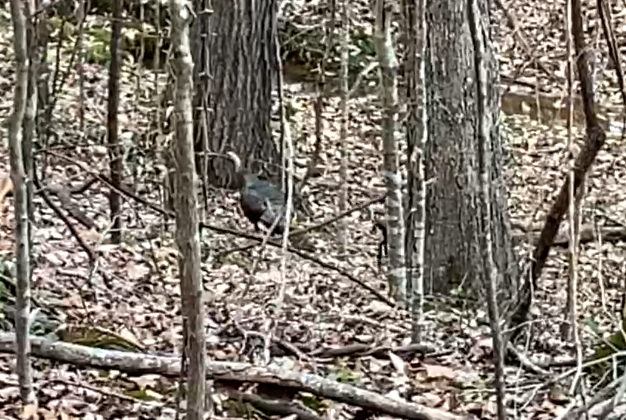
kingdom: Animalia
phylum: Chordata
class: Aves
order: Galliformes
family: Phasianidae
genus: Meleagris
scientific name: Meleagris gallopavo
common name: Wild turkey
